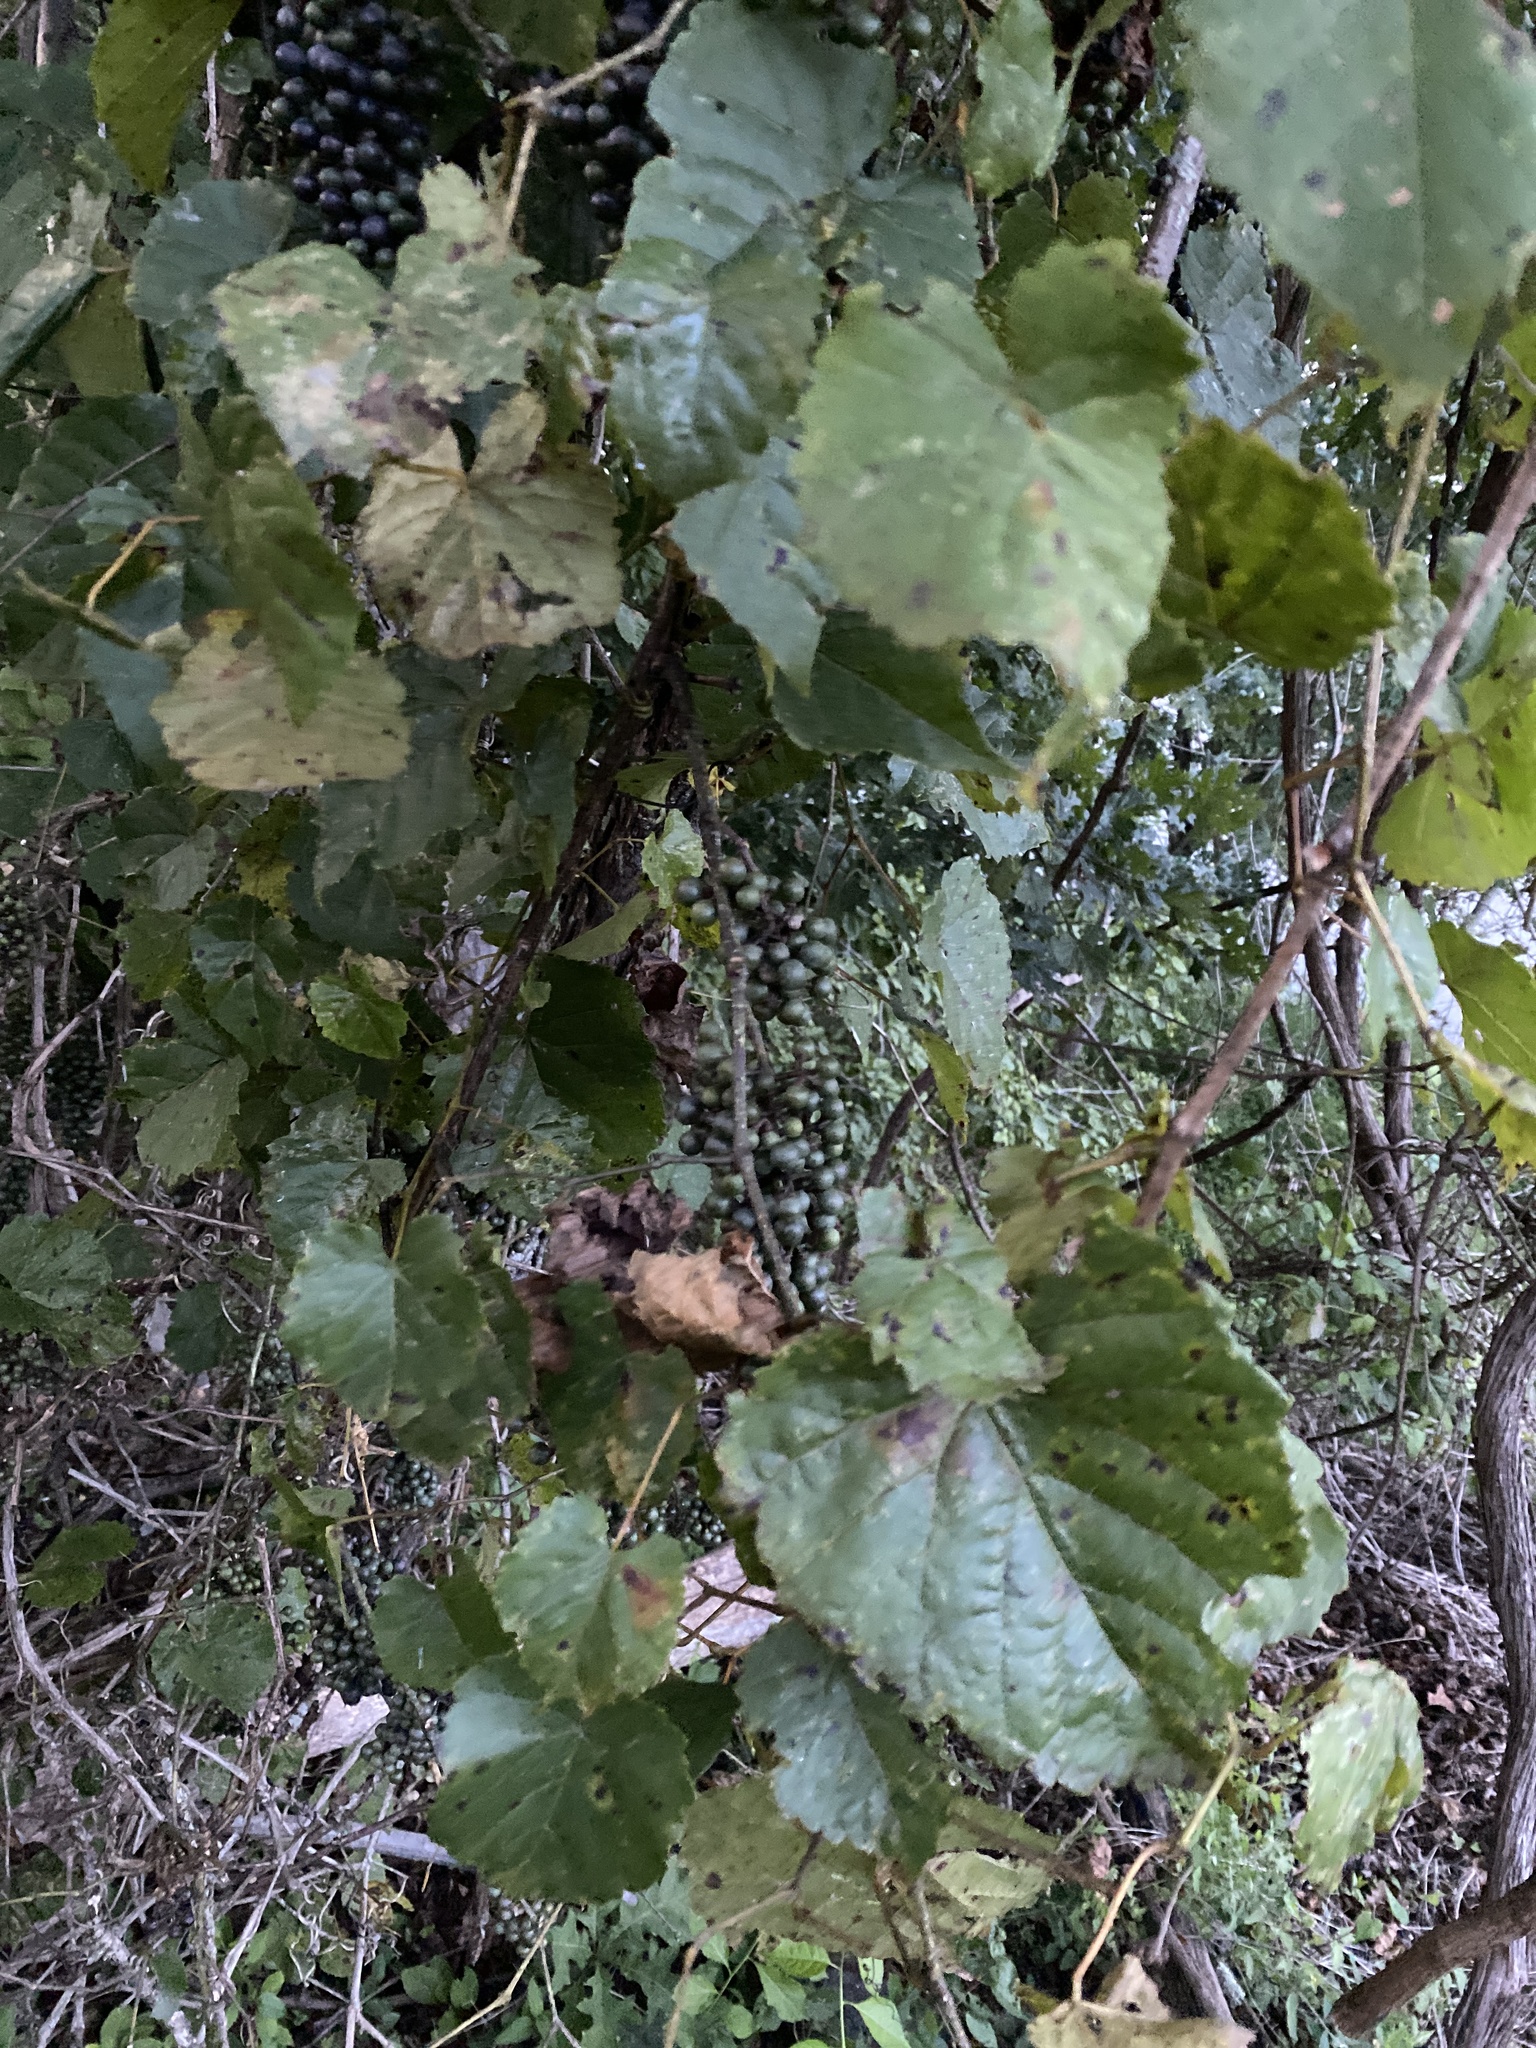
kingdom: Plantae
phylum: Tracheophyta
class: Magnoliopsida
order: Vitales
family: Vitaceae
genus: Vitis
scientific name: Vitis rotundifolia
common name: Muscadine grape
